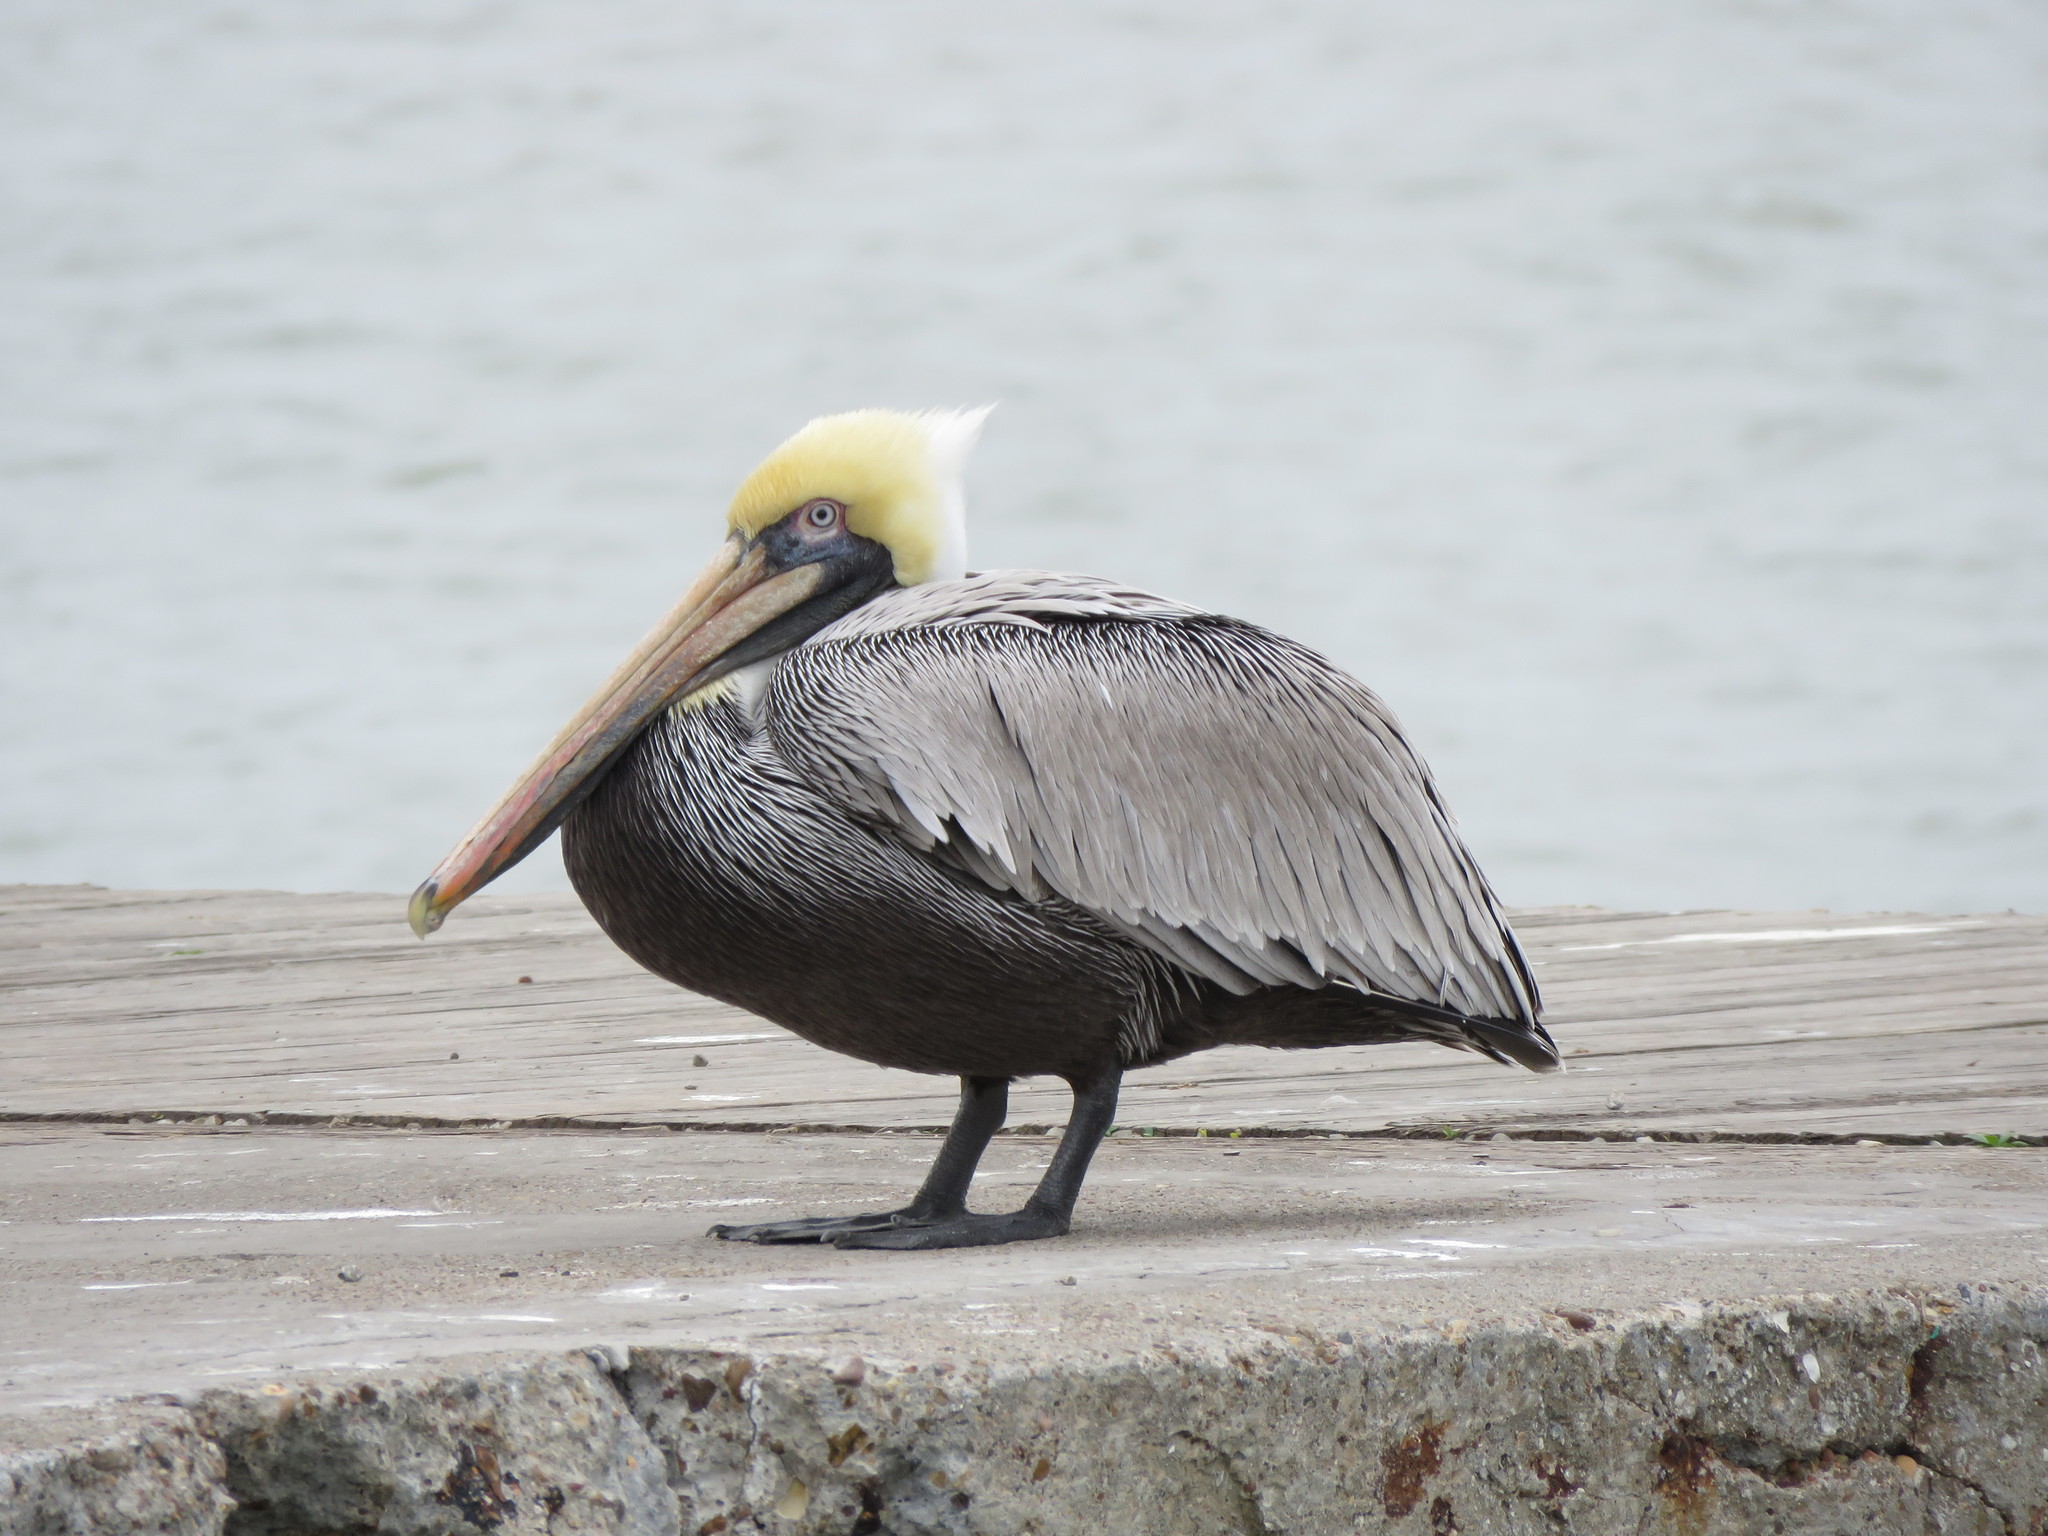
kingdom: Animalia
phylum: Chordata
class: Aves
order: Pelecaniformes
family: Pelecanidae
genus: Pelecanus
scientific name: Pelecanus occidentalis
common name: Brown pelican
